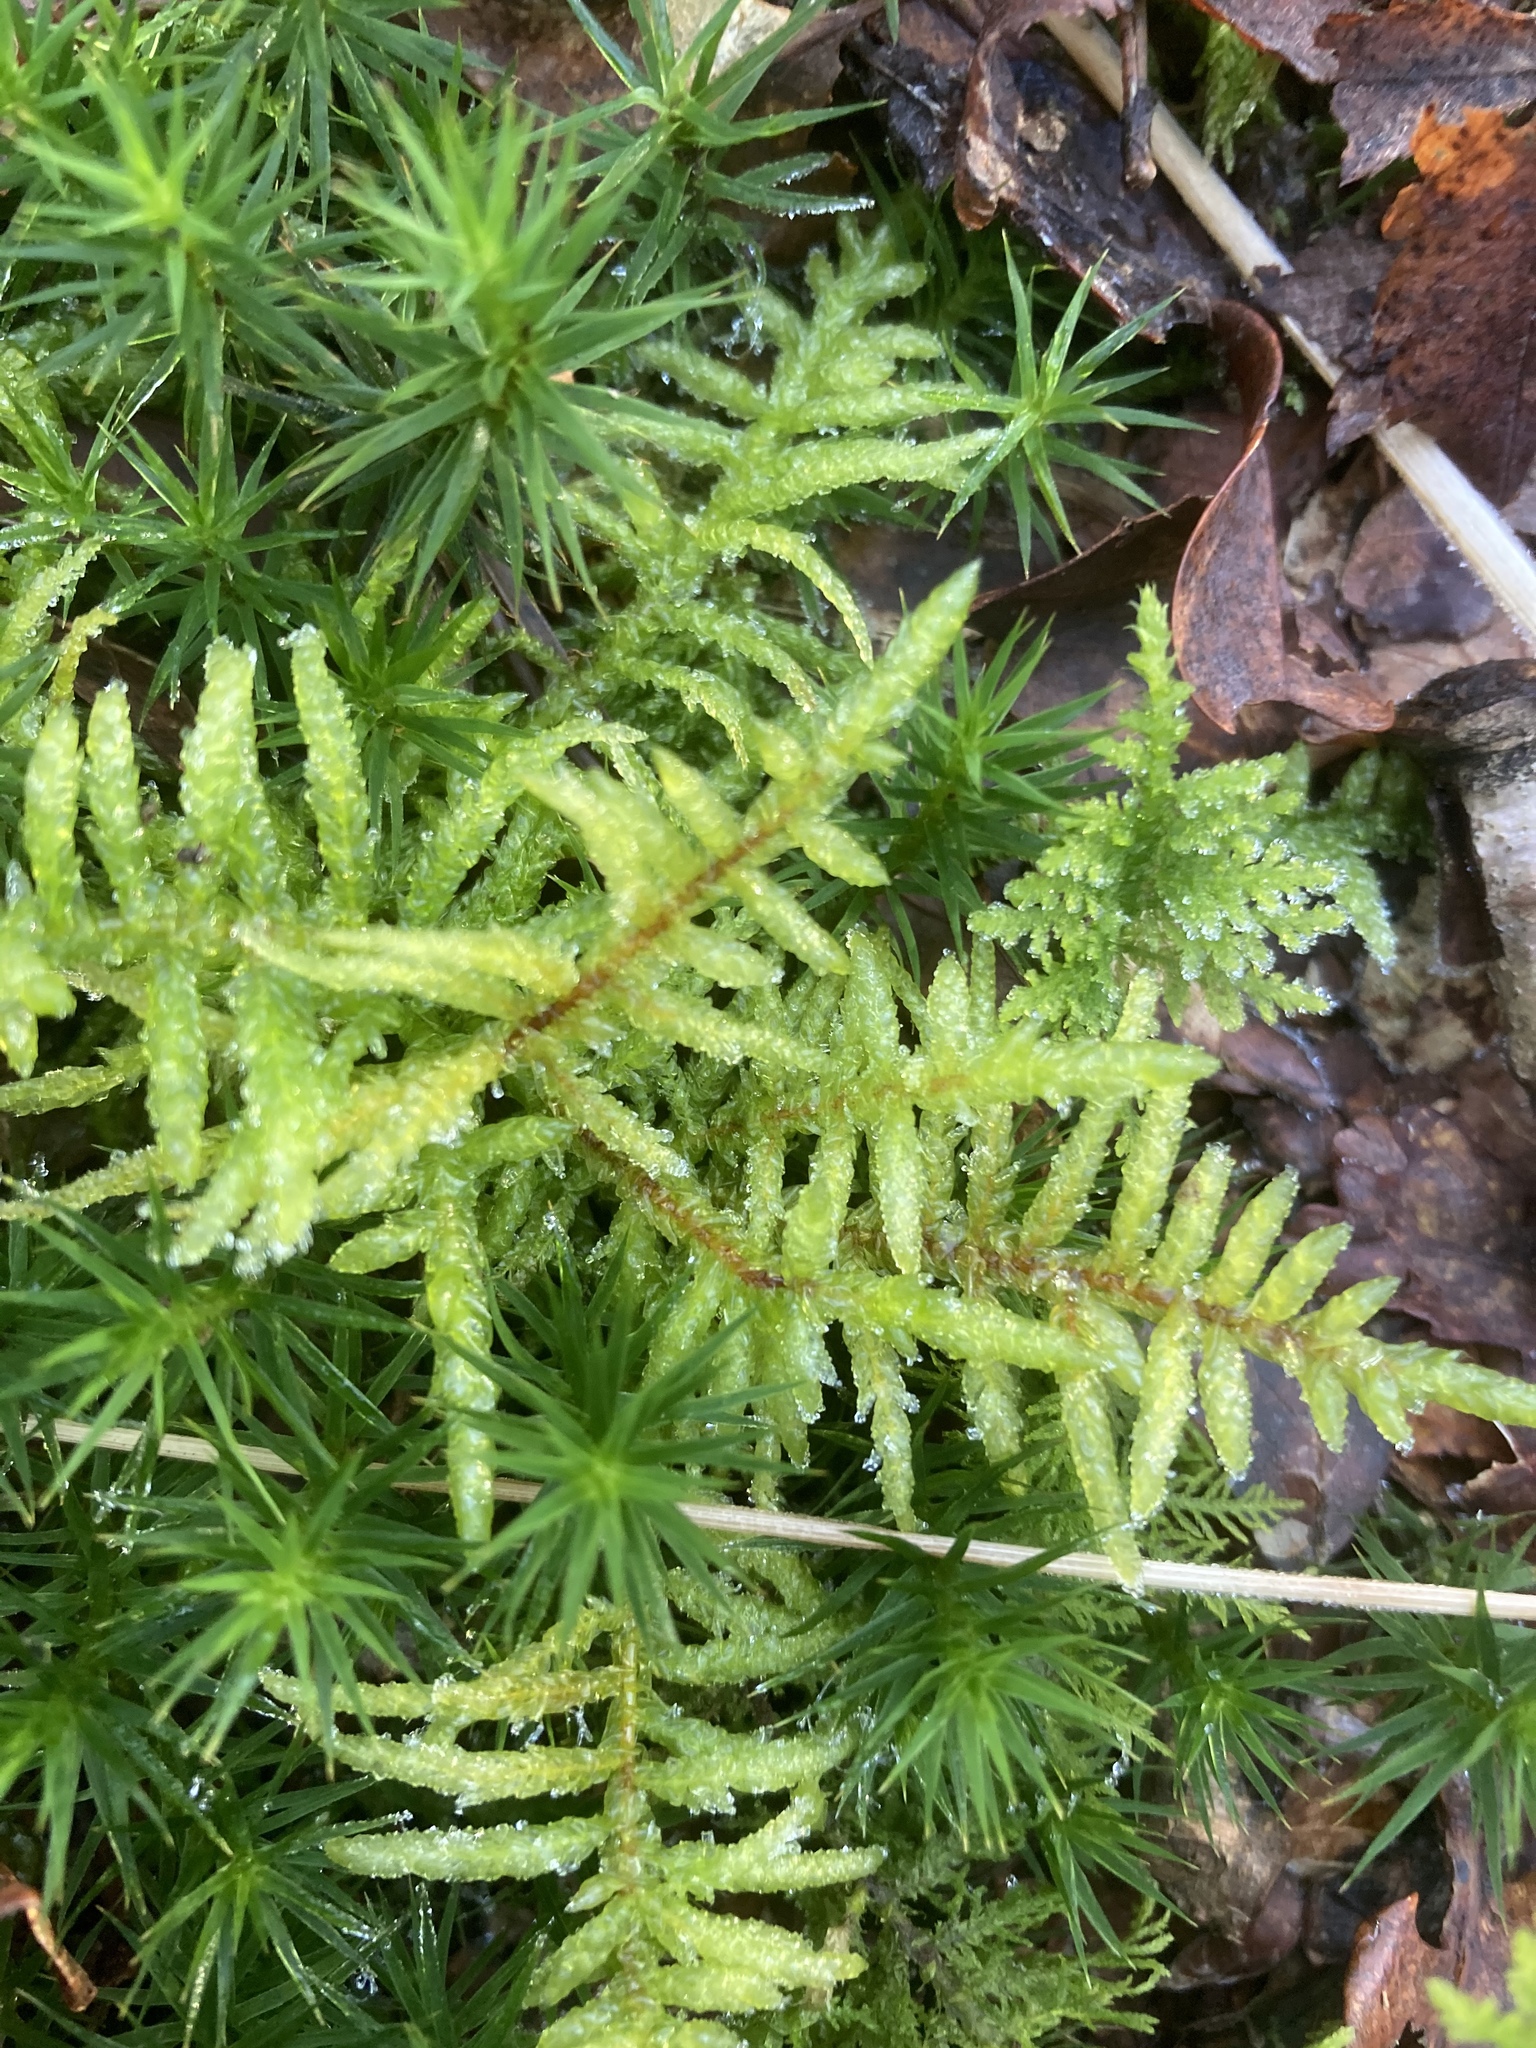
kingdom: Plantae
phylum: Bryophyta
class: Bryopsida
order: Hypnales
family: Hylocomiaceae
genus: Pleurozium
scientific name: Pleurozium schreberi
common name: Red-stemmed feather moss
